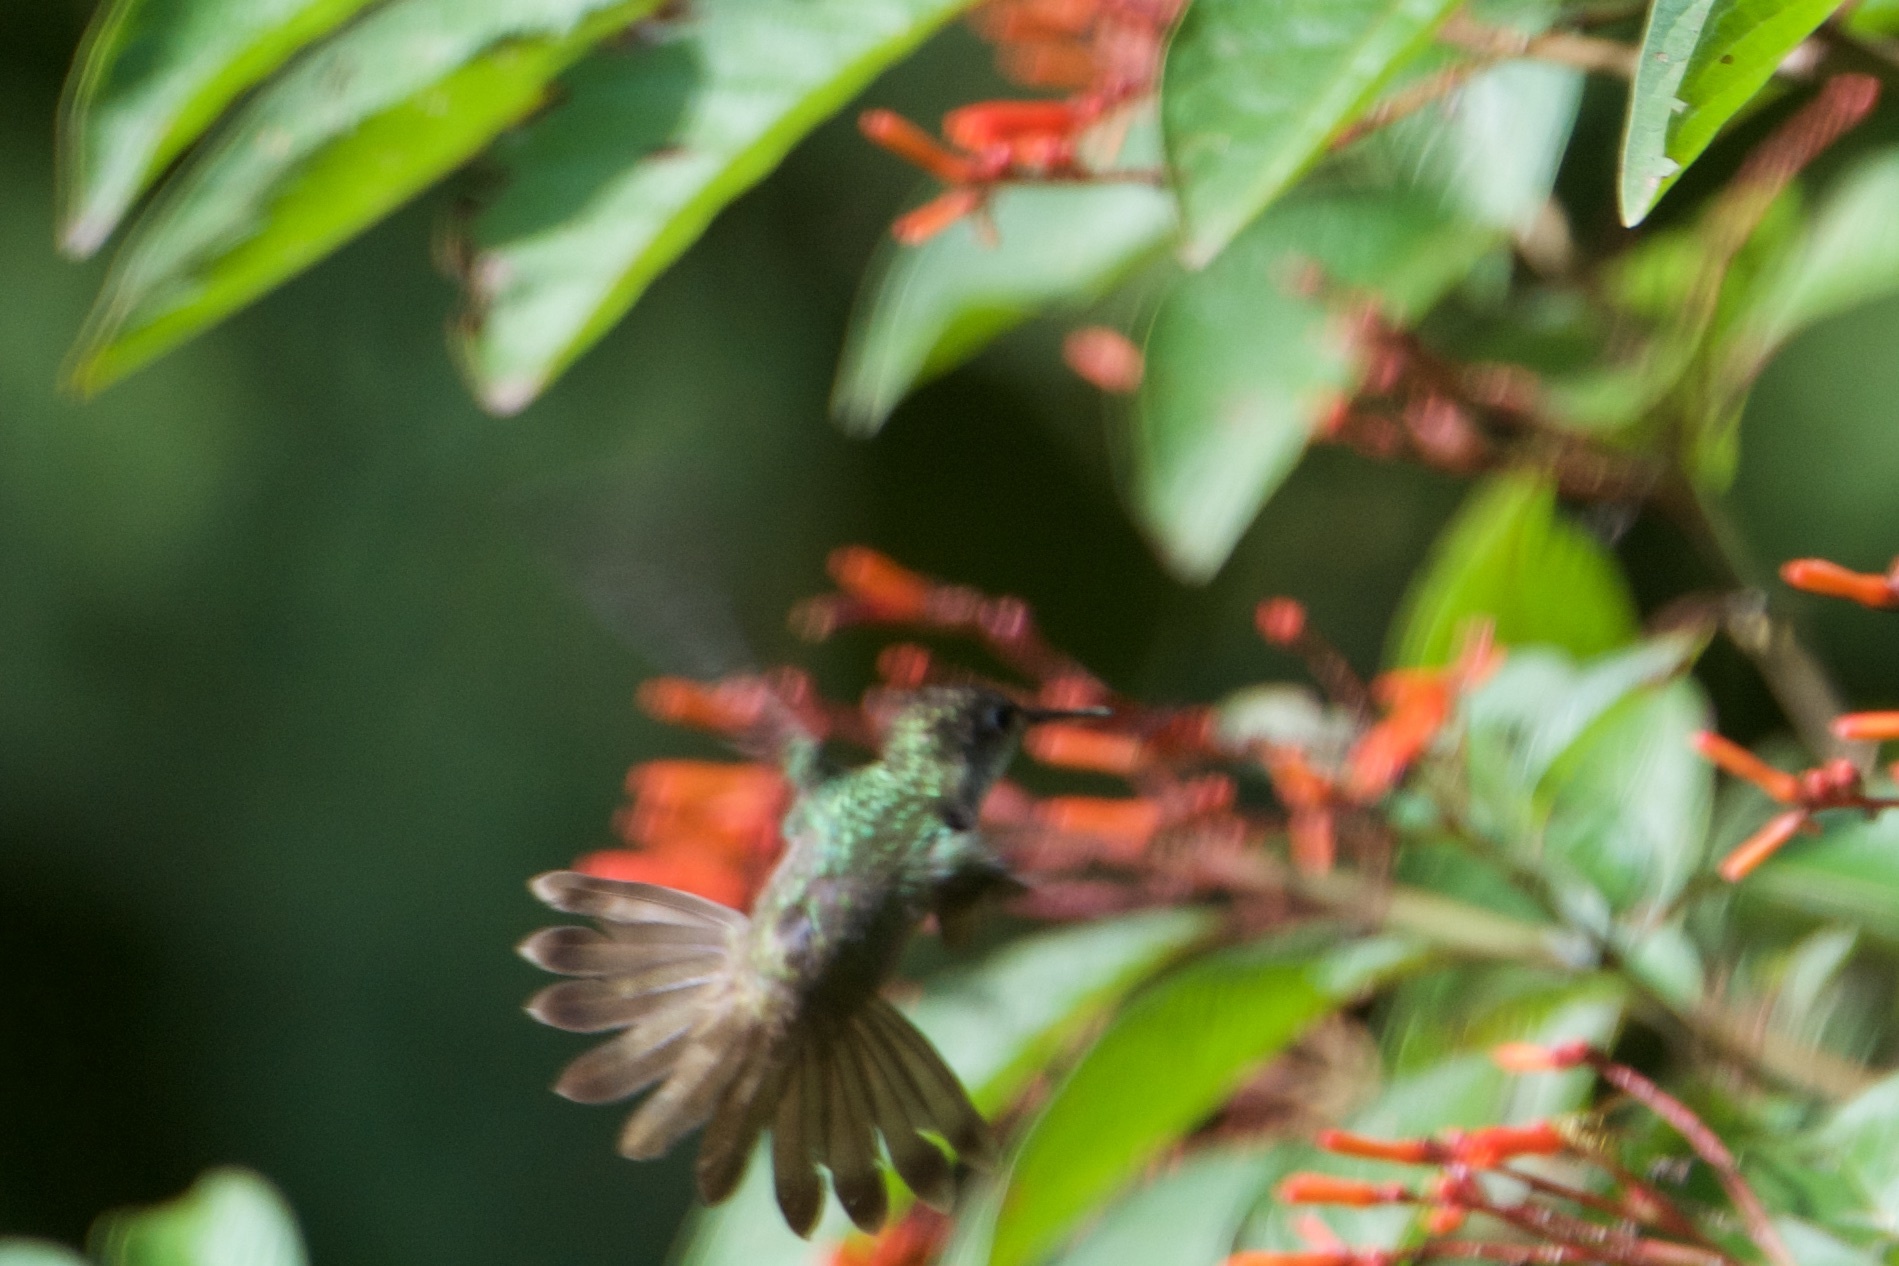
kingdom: Animalia
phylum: Chordata
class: Aves
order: Apodiformes
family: Trochilidae
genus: Chlorestes
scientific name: Chlorestes candida
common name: White-bellied emerald
